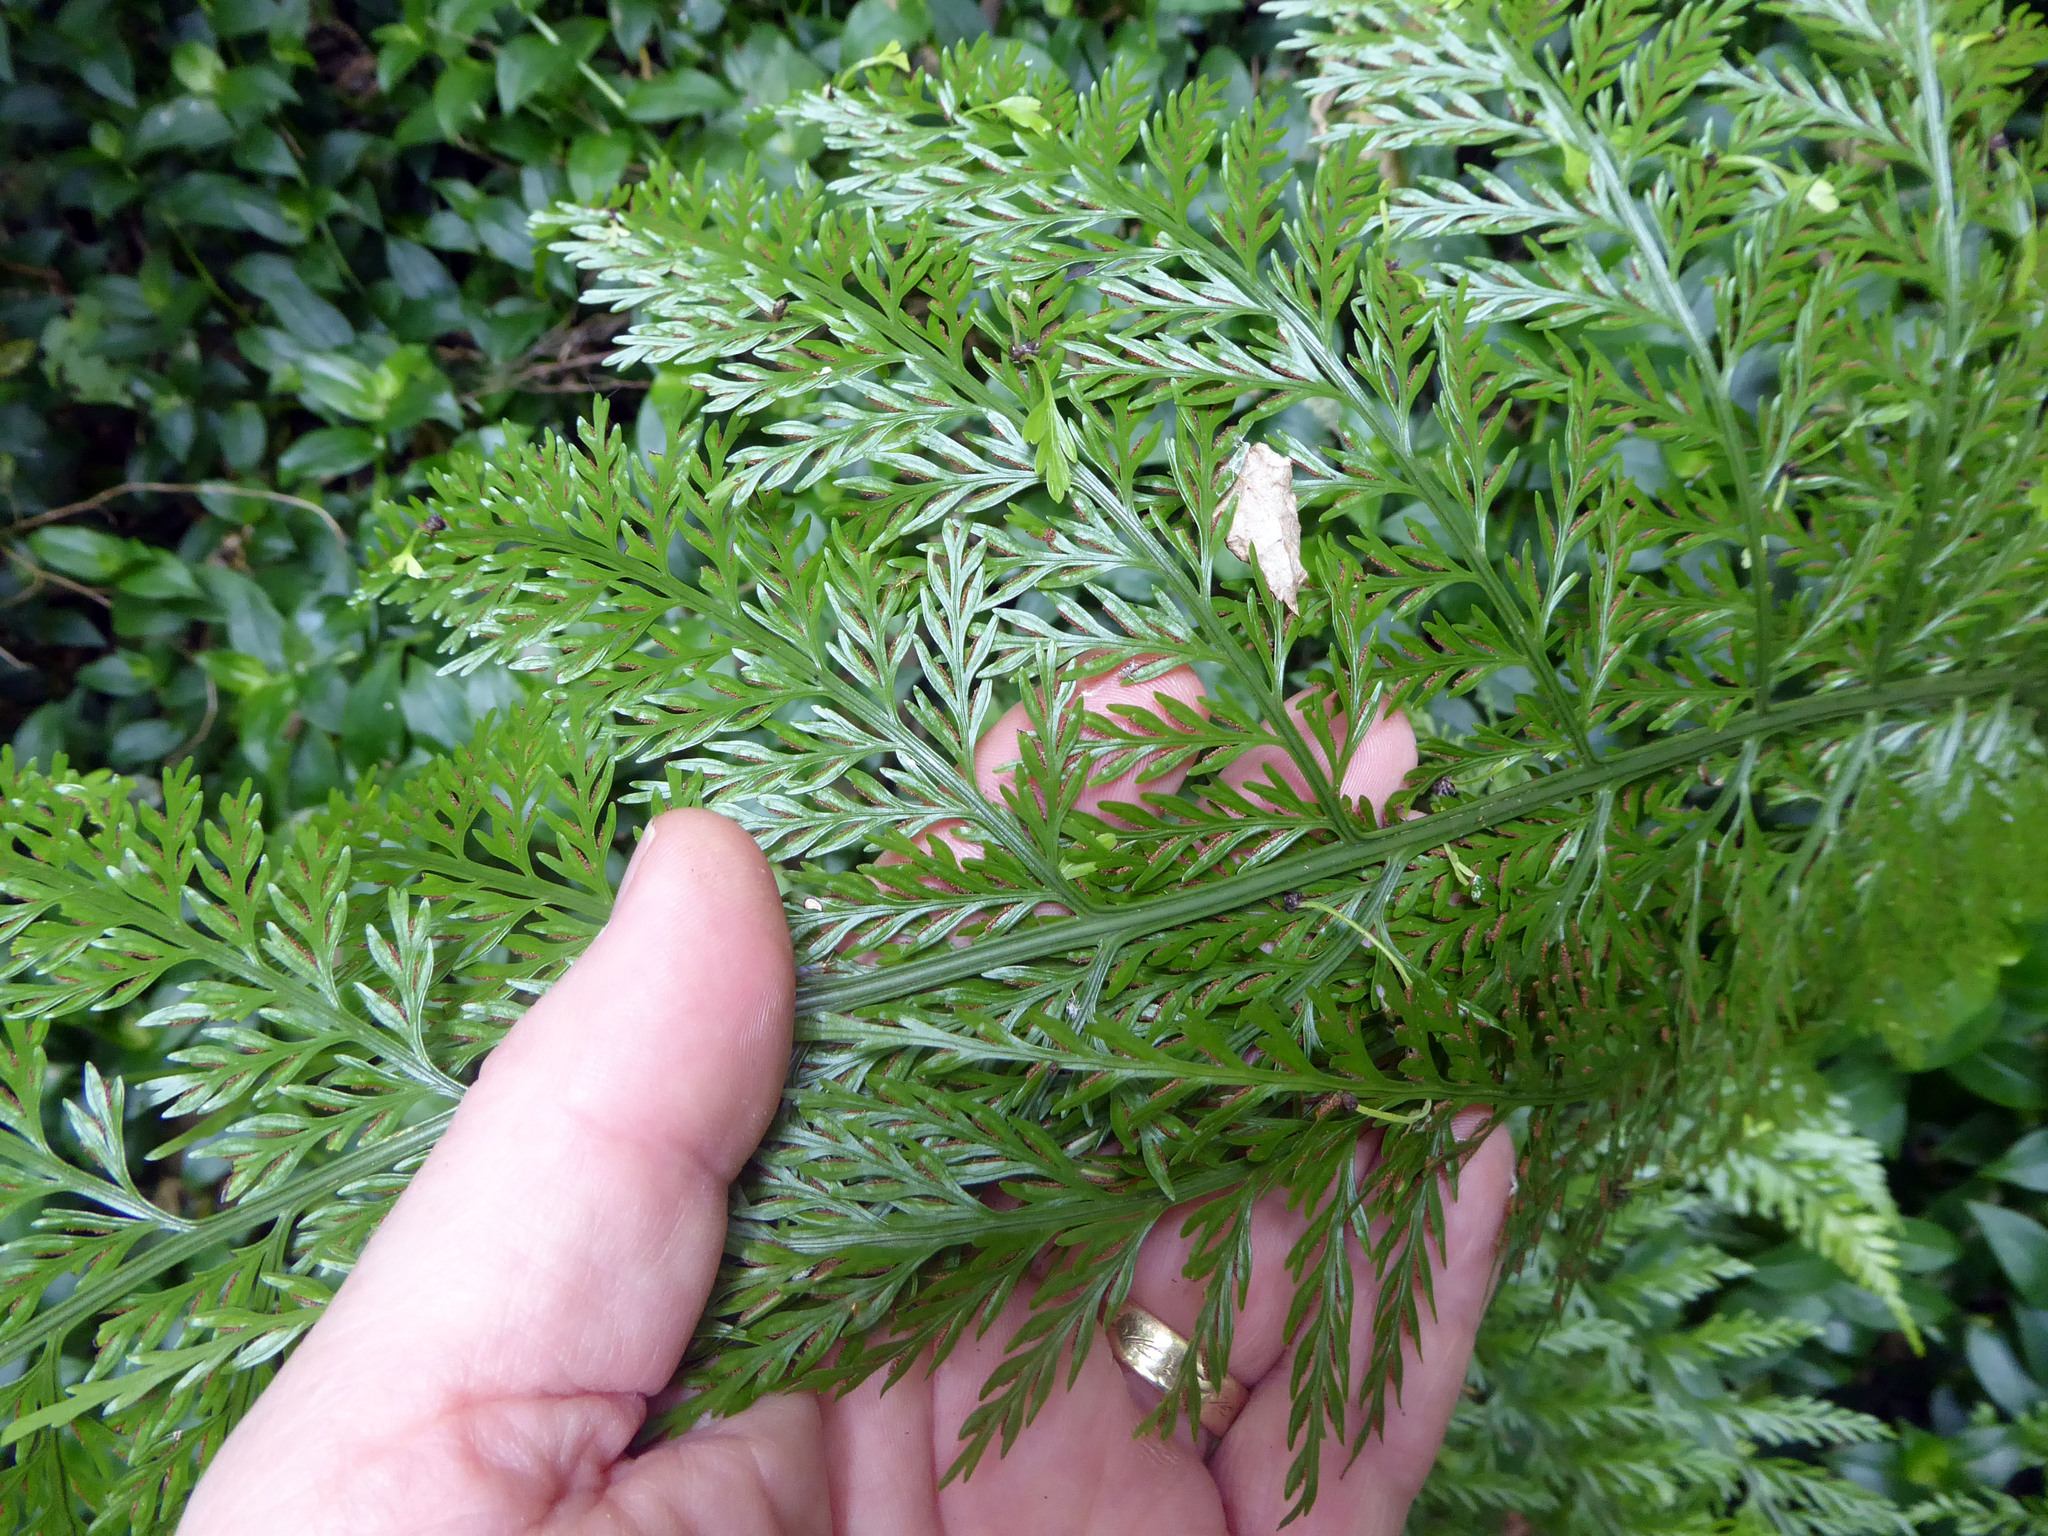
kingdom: Plantae
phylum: Tracheophyta
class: Polypodiopsida
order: Polypodiales
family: Aspleniaceae
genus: Asplenium
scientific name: Asplenium lucrosum
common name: False hen-and-chickens fern
